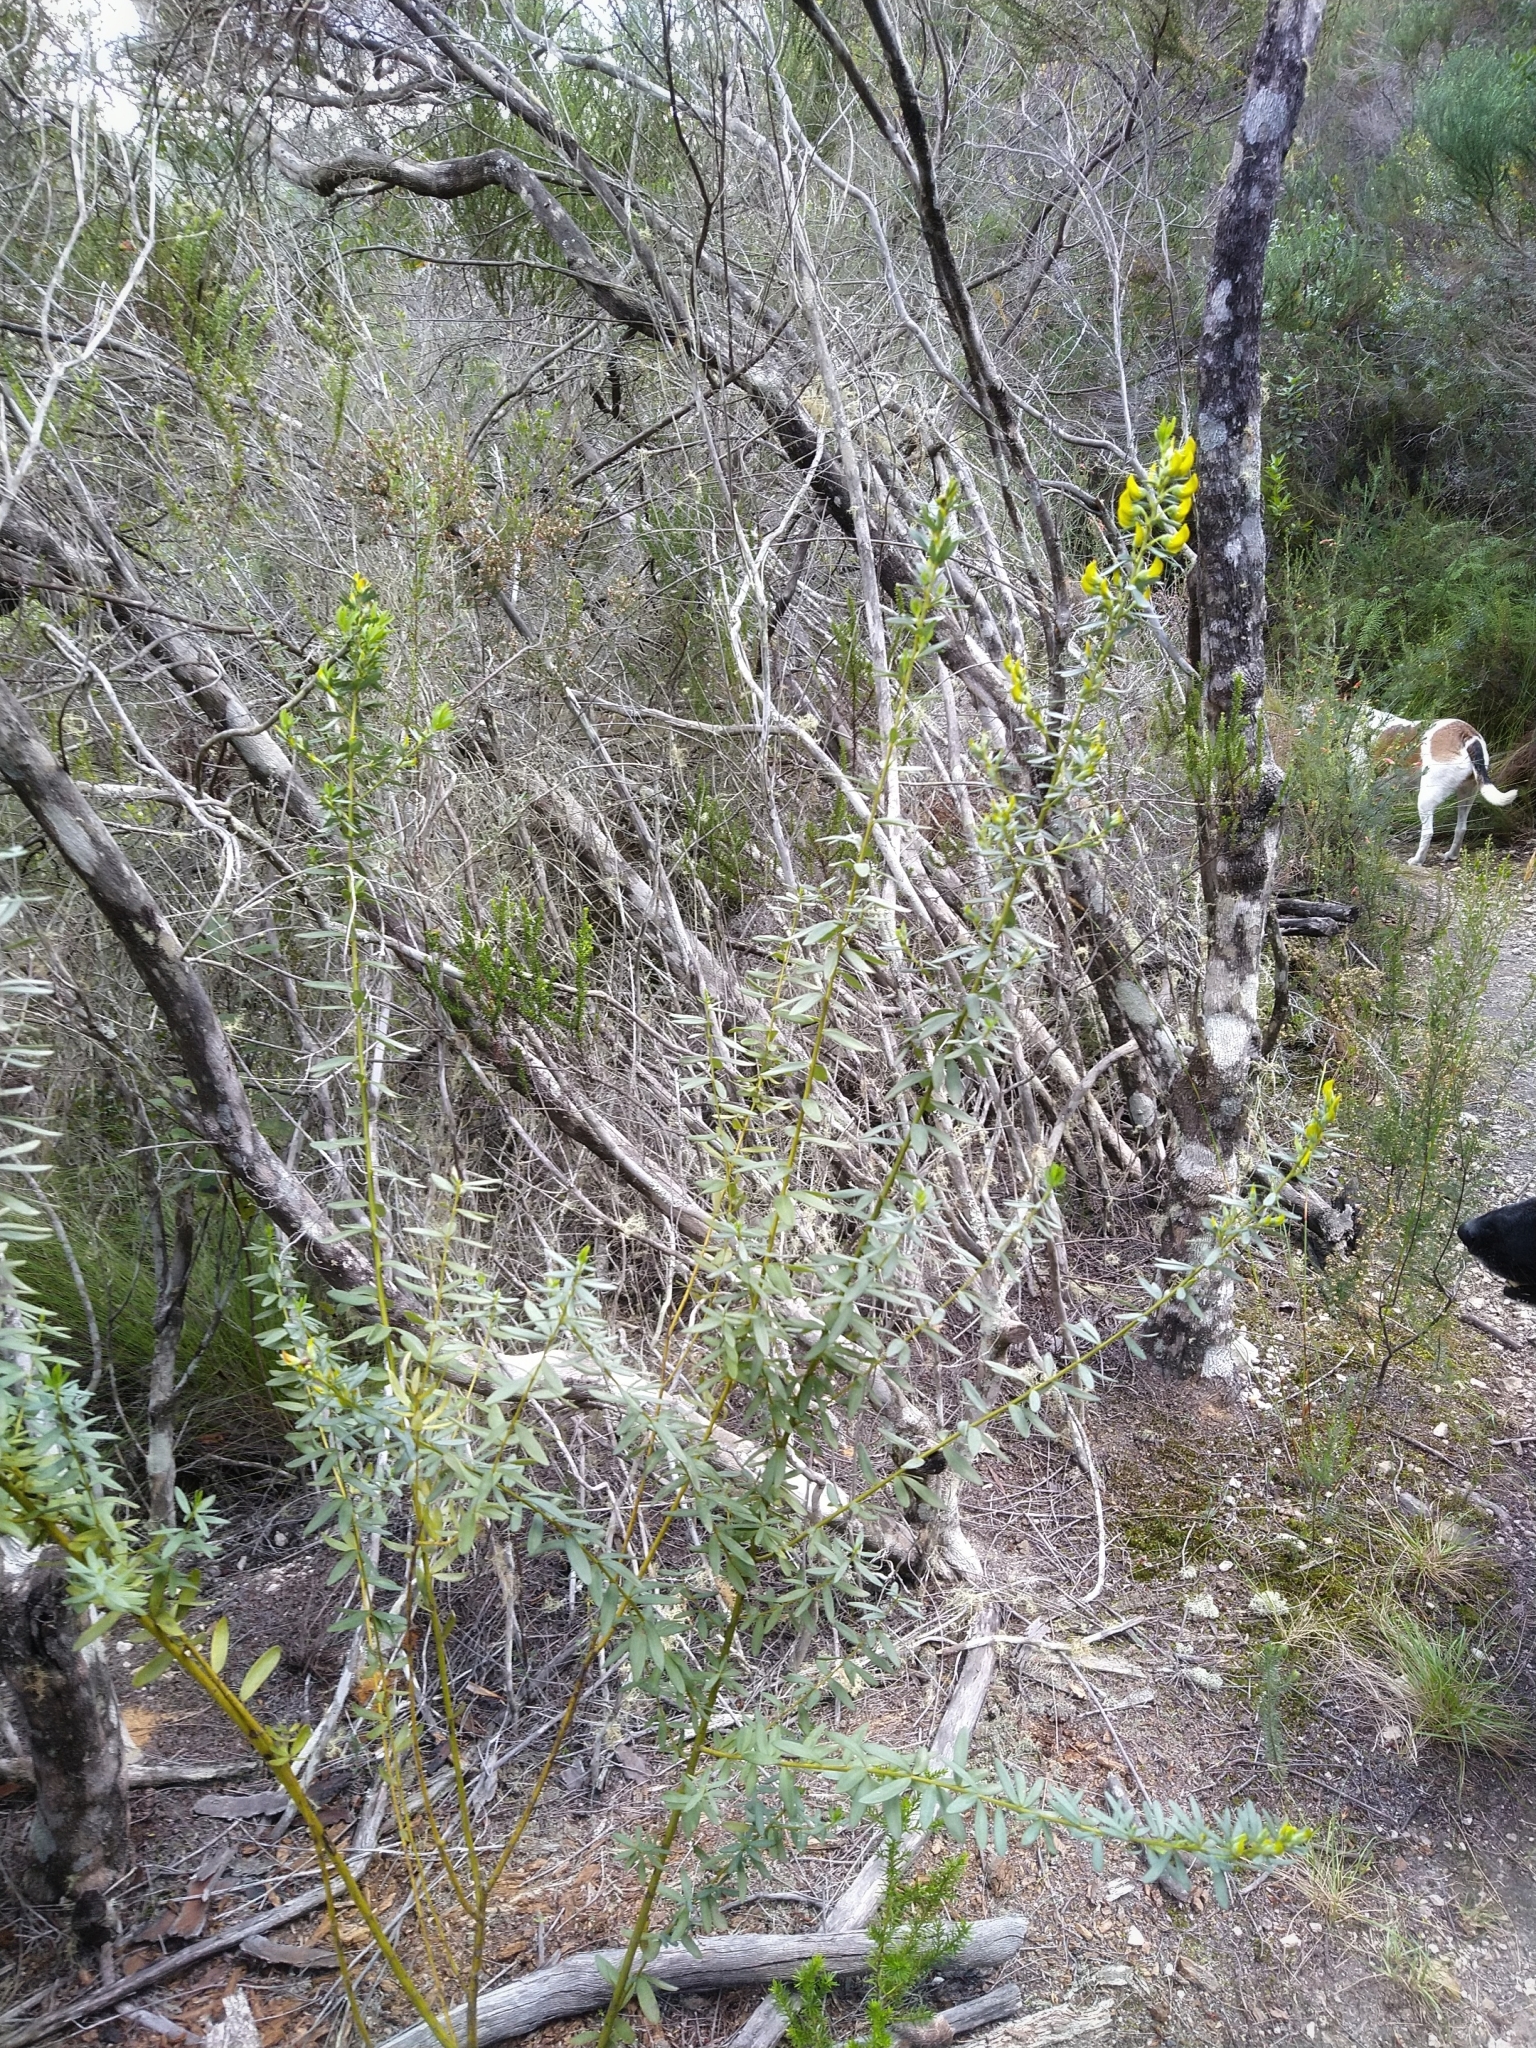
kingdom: Plantae
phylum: Tracheophyta
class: Magnoliopsida
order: Fabales
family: Fabaceae
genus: Cyclopia
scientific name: Cyclopia subternata
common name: Honeybush tea
